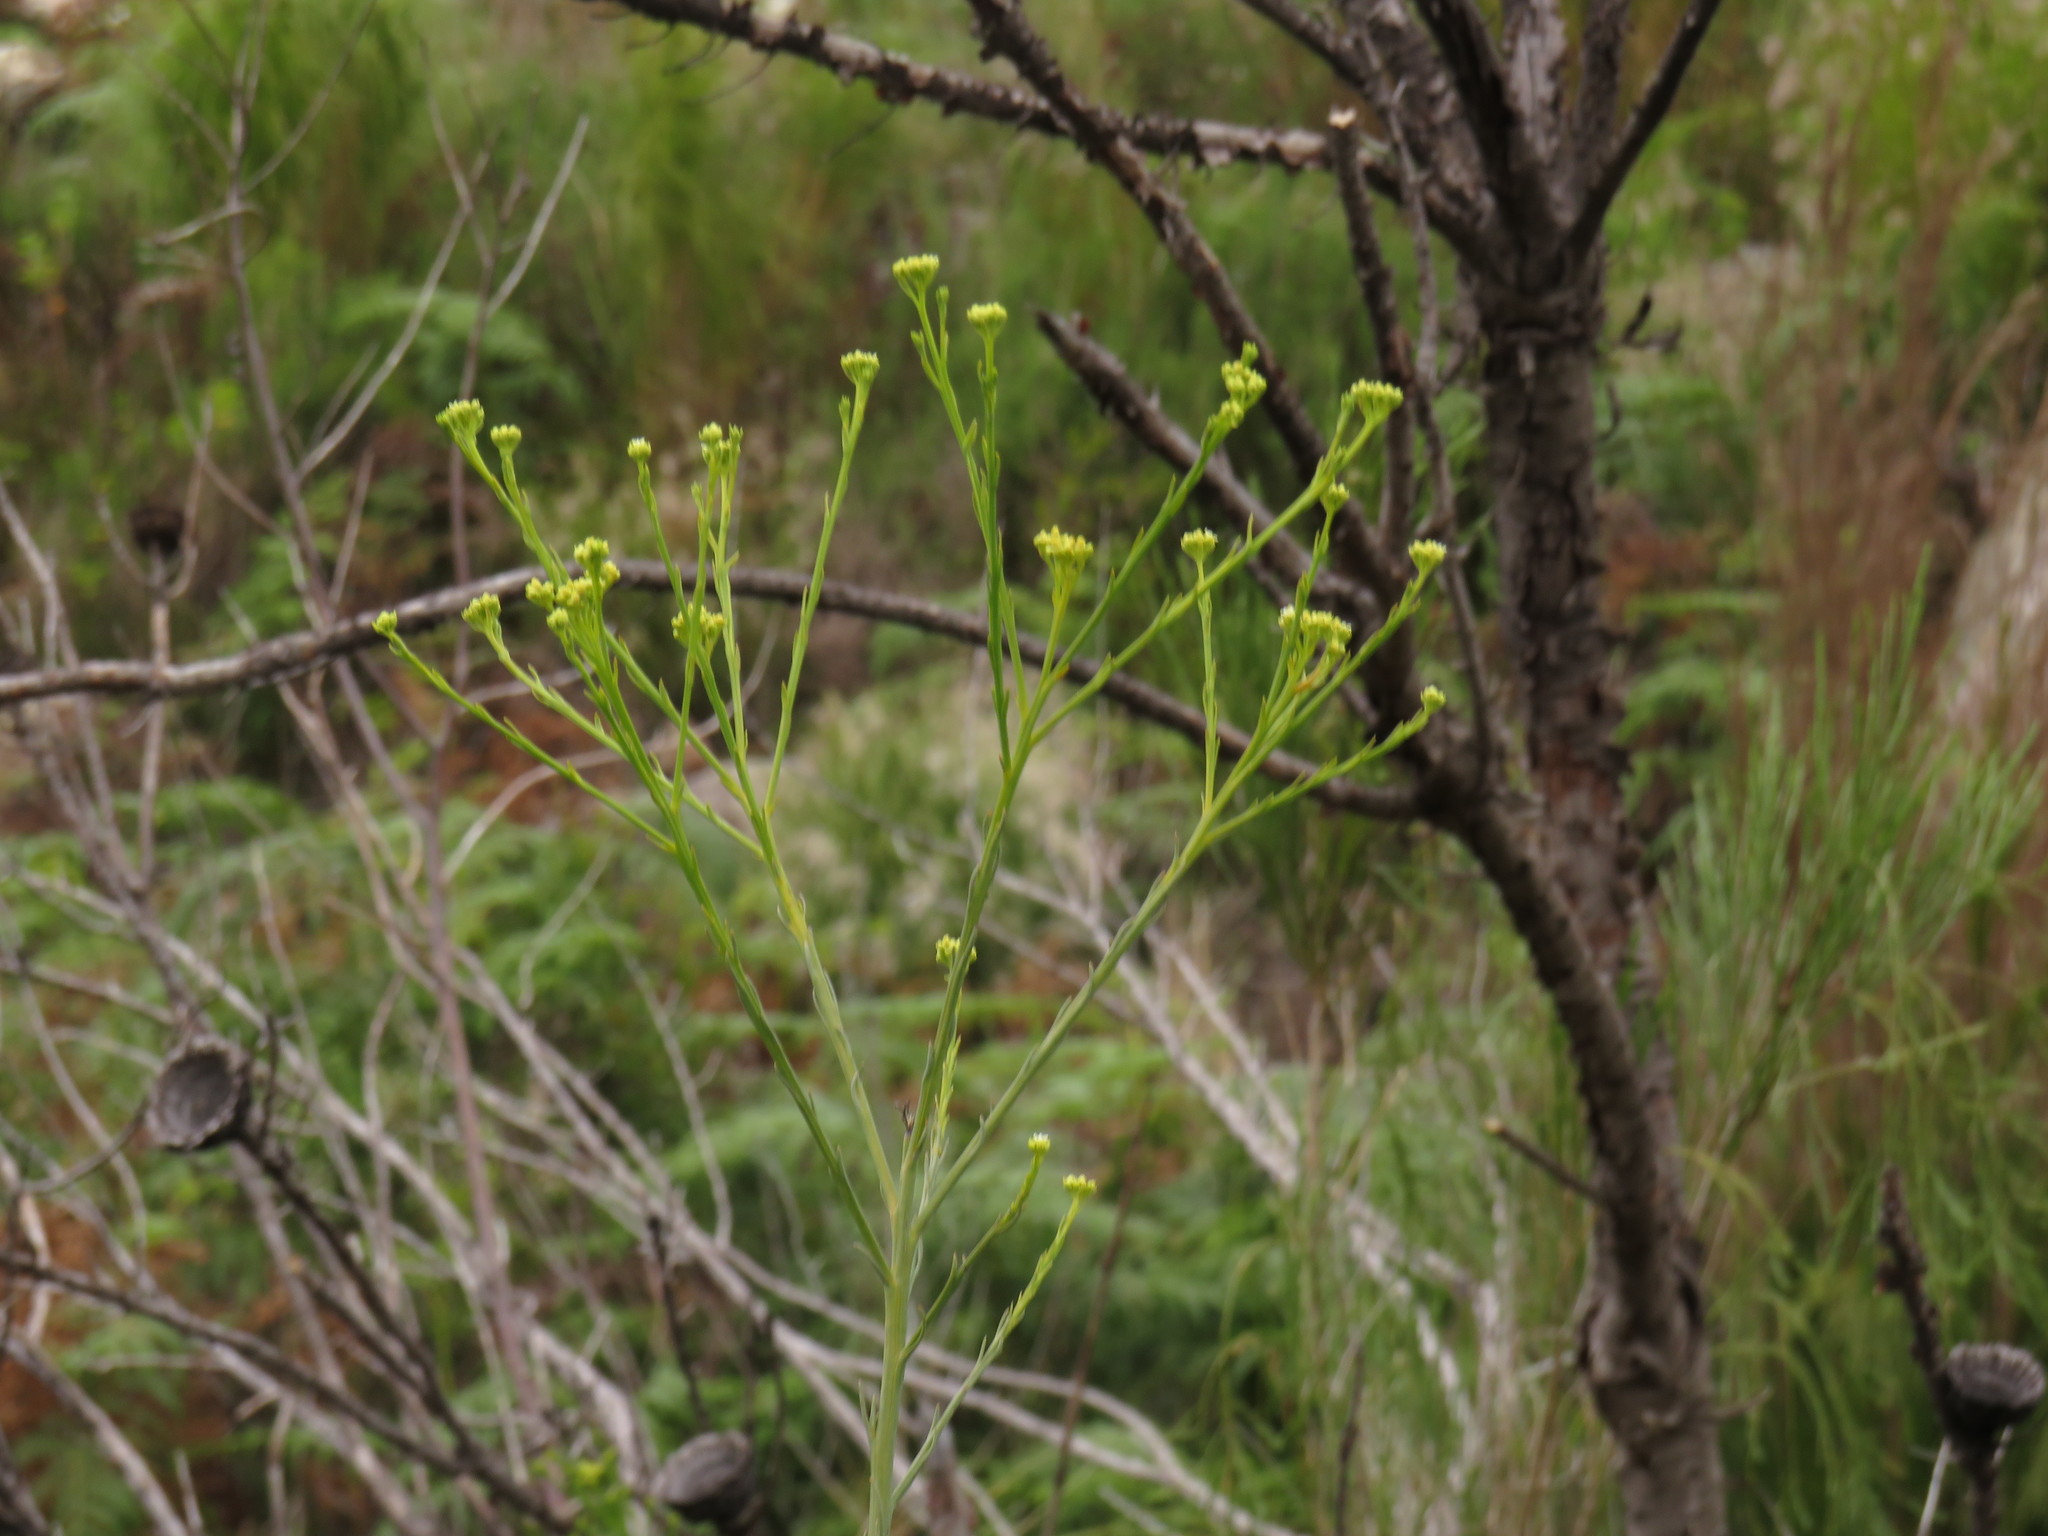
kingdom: Plantae
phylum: Tracheophyta
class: Magnoliopsida
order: Santalales
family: Thesiaceae
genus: Thesium
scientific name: Thesium strictum
